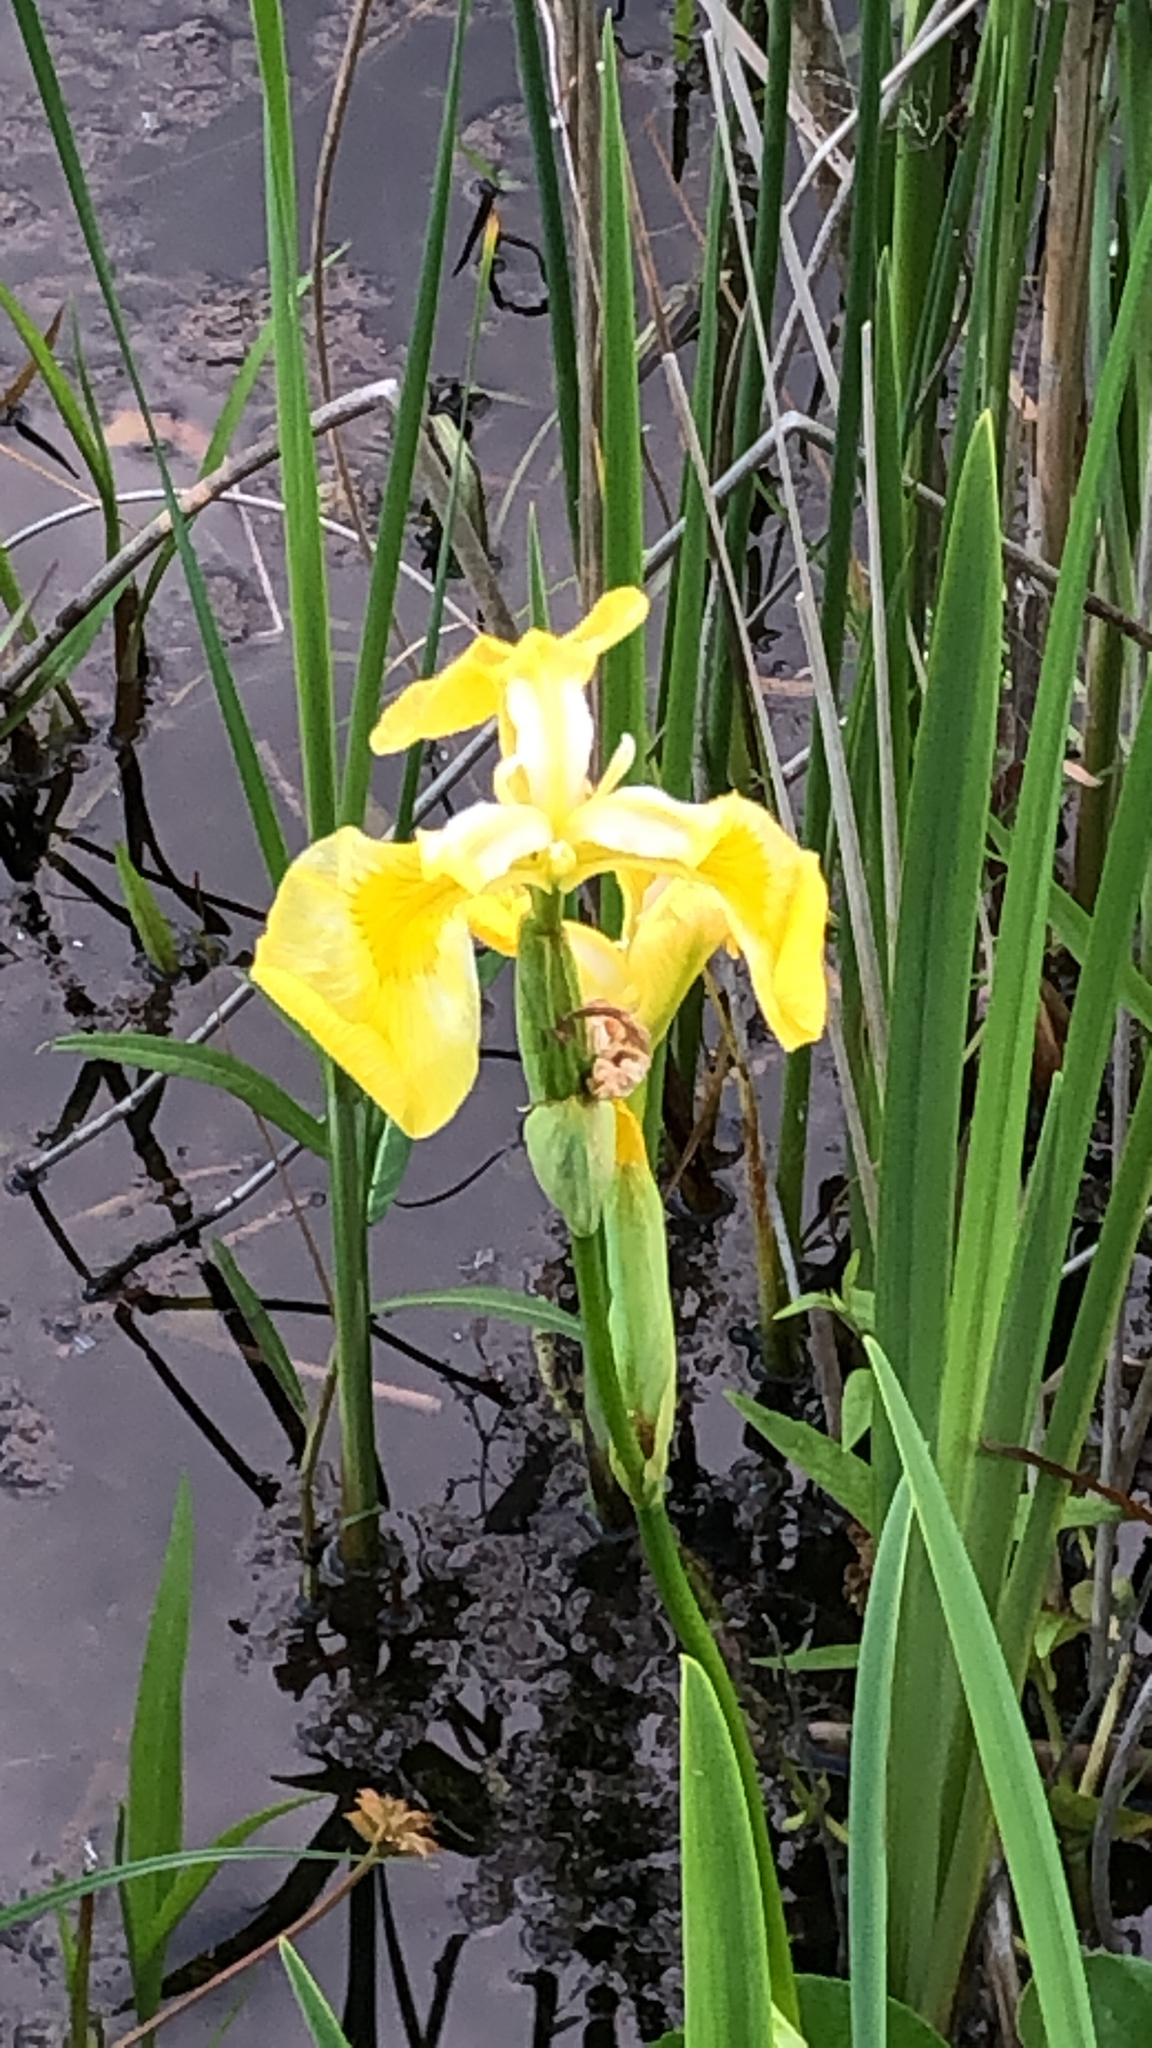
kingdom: Plantae
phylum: Tracheophyta
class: Liliopsida
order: Asparagales
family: Iridaceae
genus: Iris
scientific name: Iris pseudacorus
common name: Yellow flag
